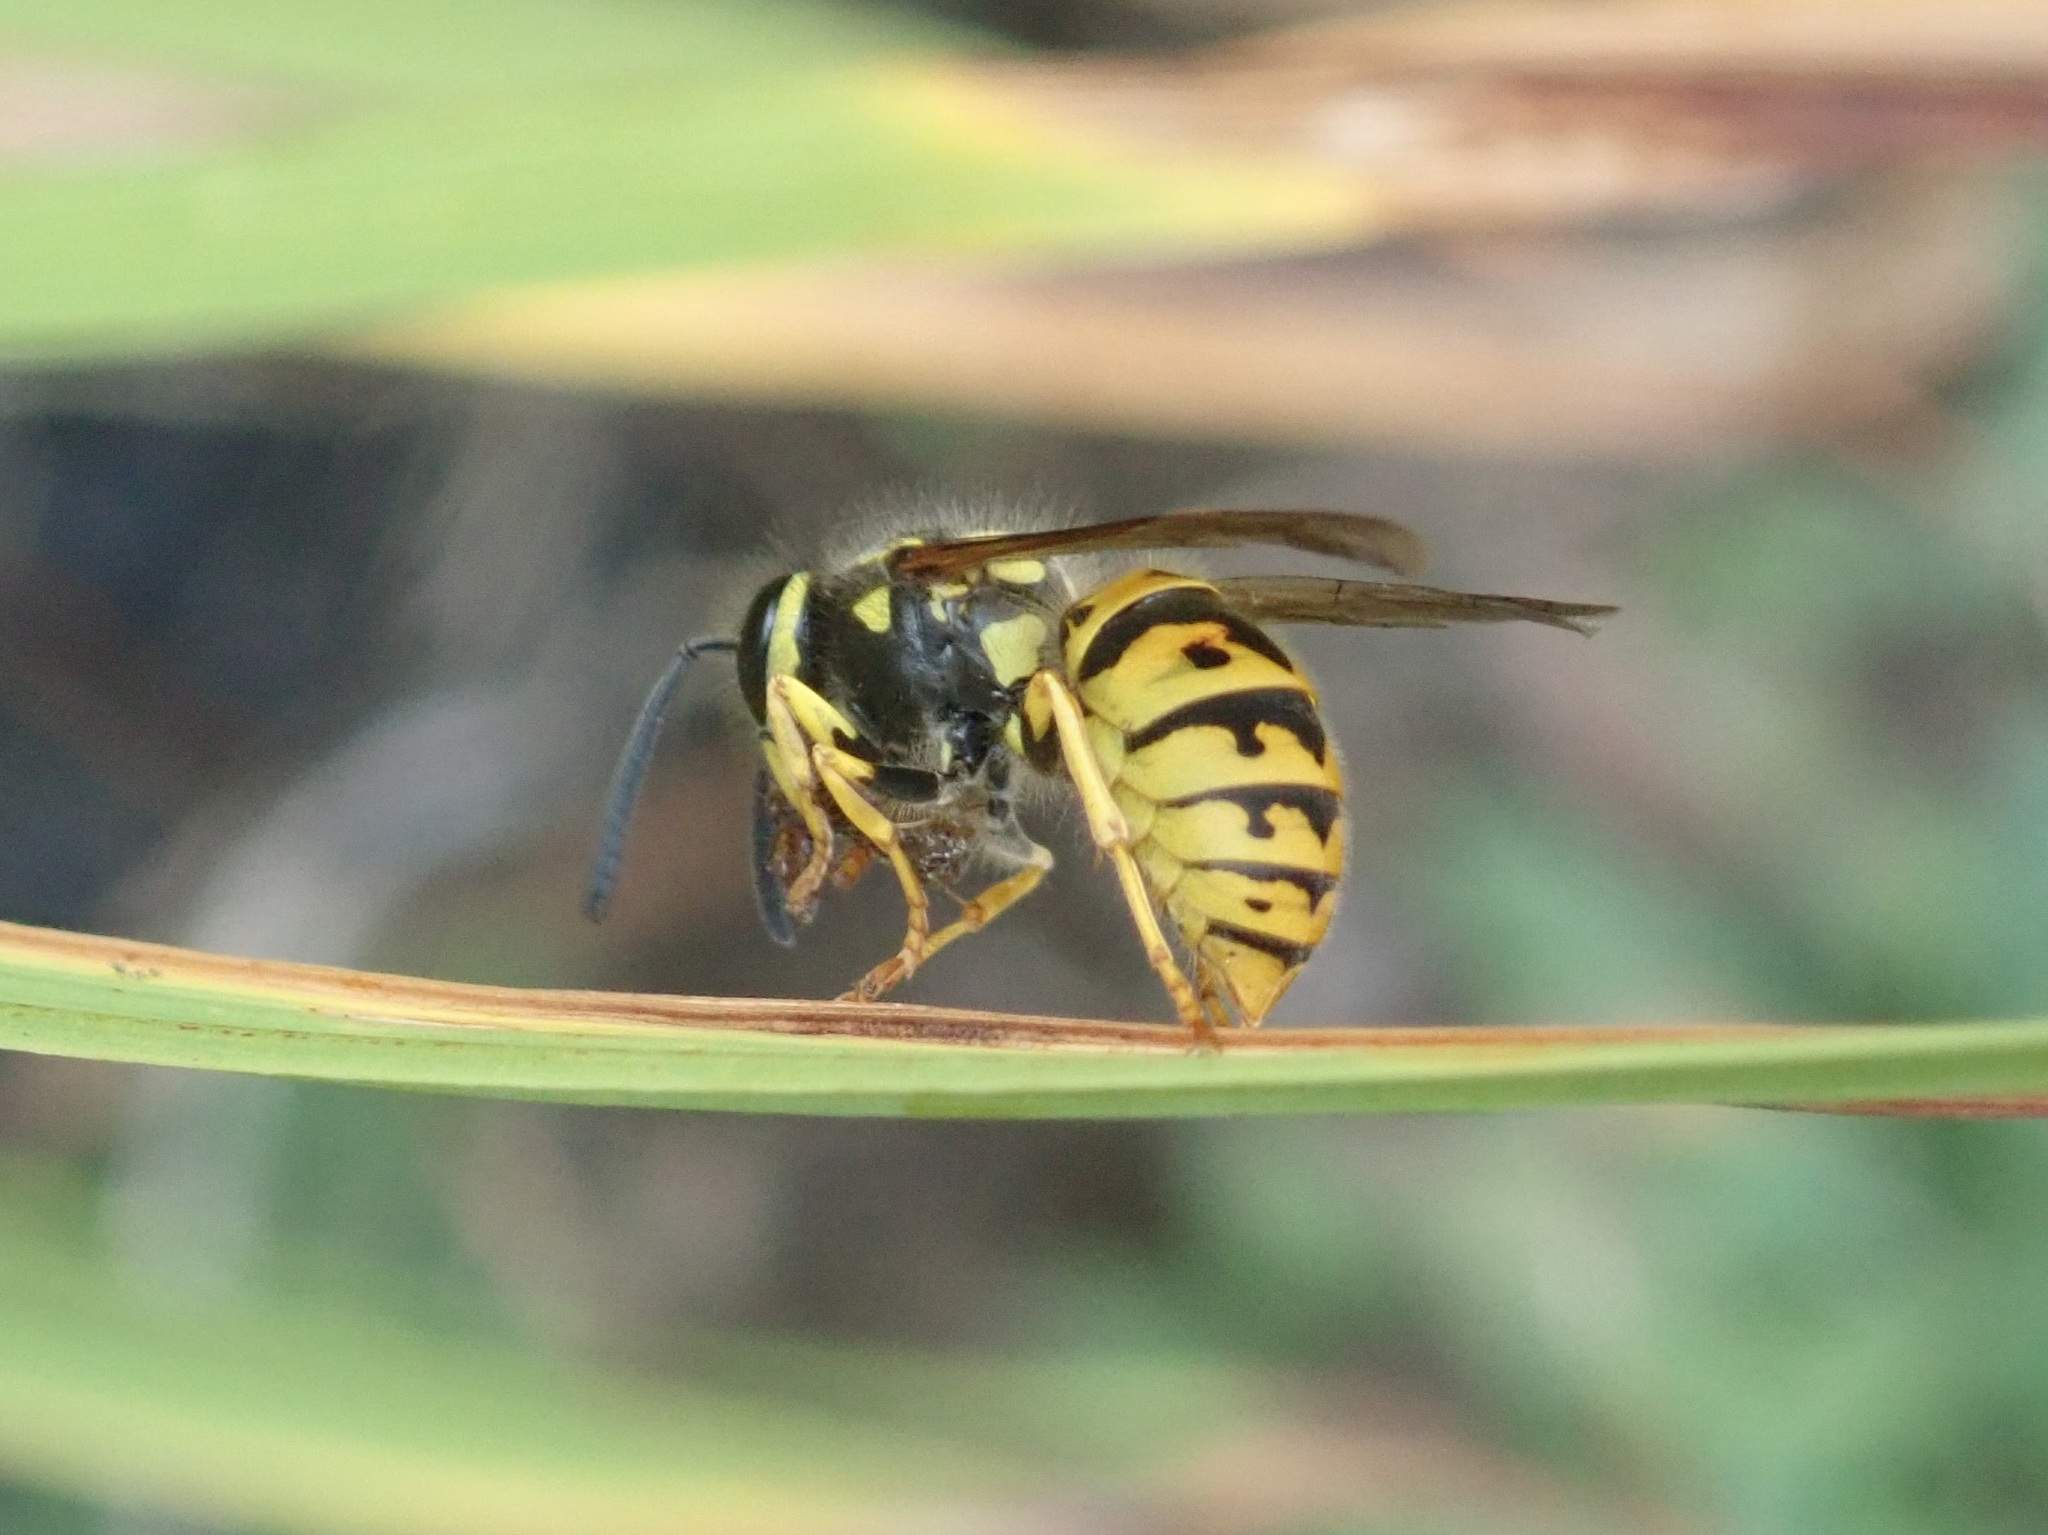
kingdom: Animalia
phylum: Arthropoda
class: Insecta
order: Hymenoptera
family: Vespidae
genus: Vespula
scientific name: Vespula germanica
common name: German wasp
